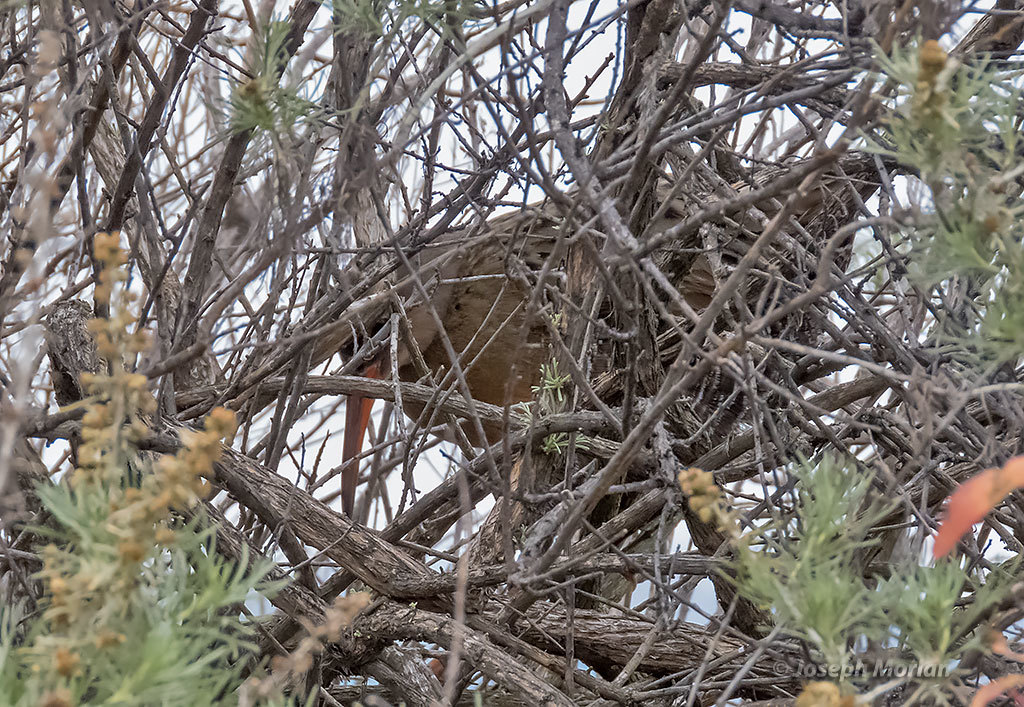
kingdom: Animalia
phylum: Chordata
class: Aves
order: Gruiformes
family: Rallidae
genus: Rallus
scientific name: Rallus obsoletus
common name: Ridgway's rail
